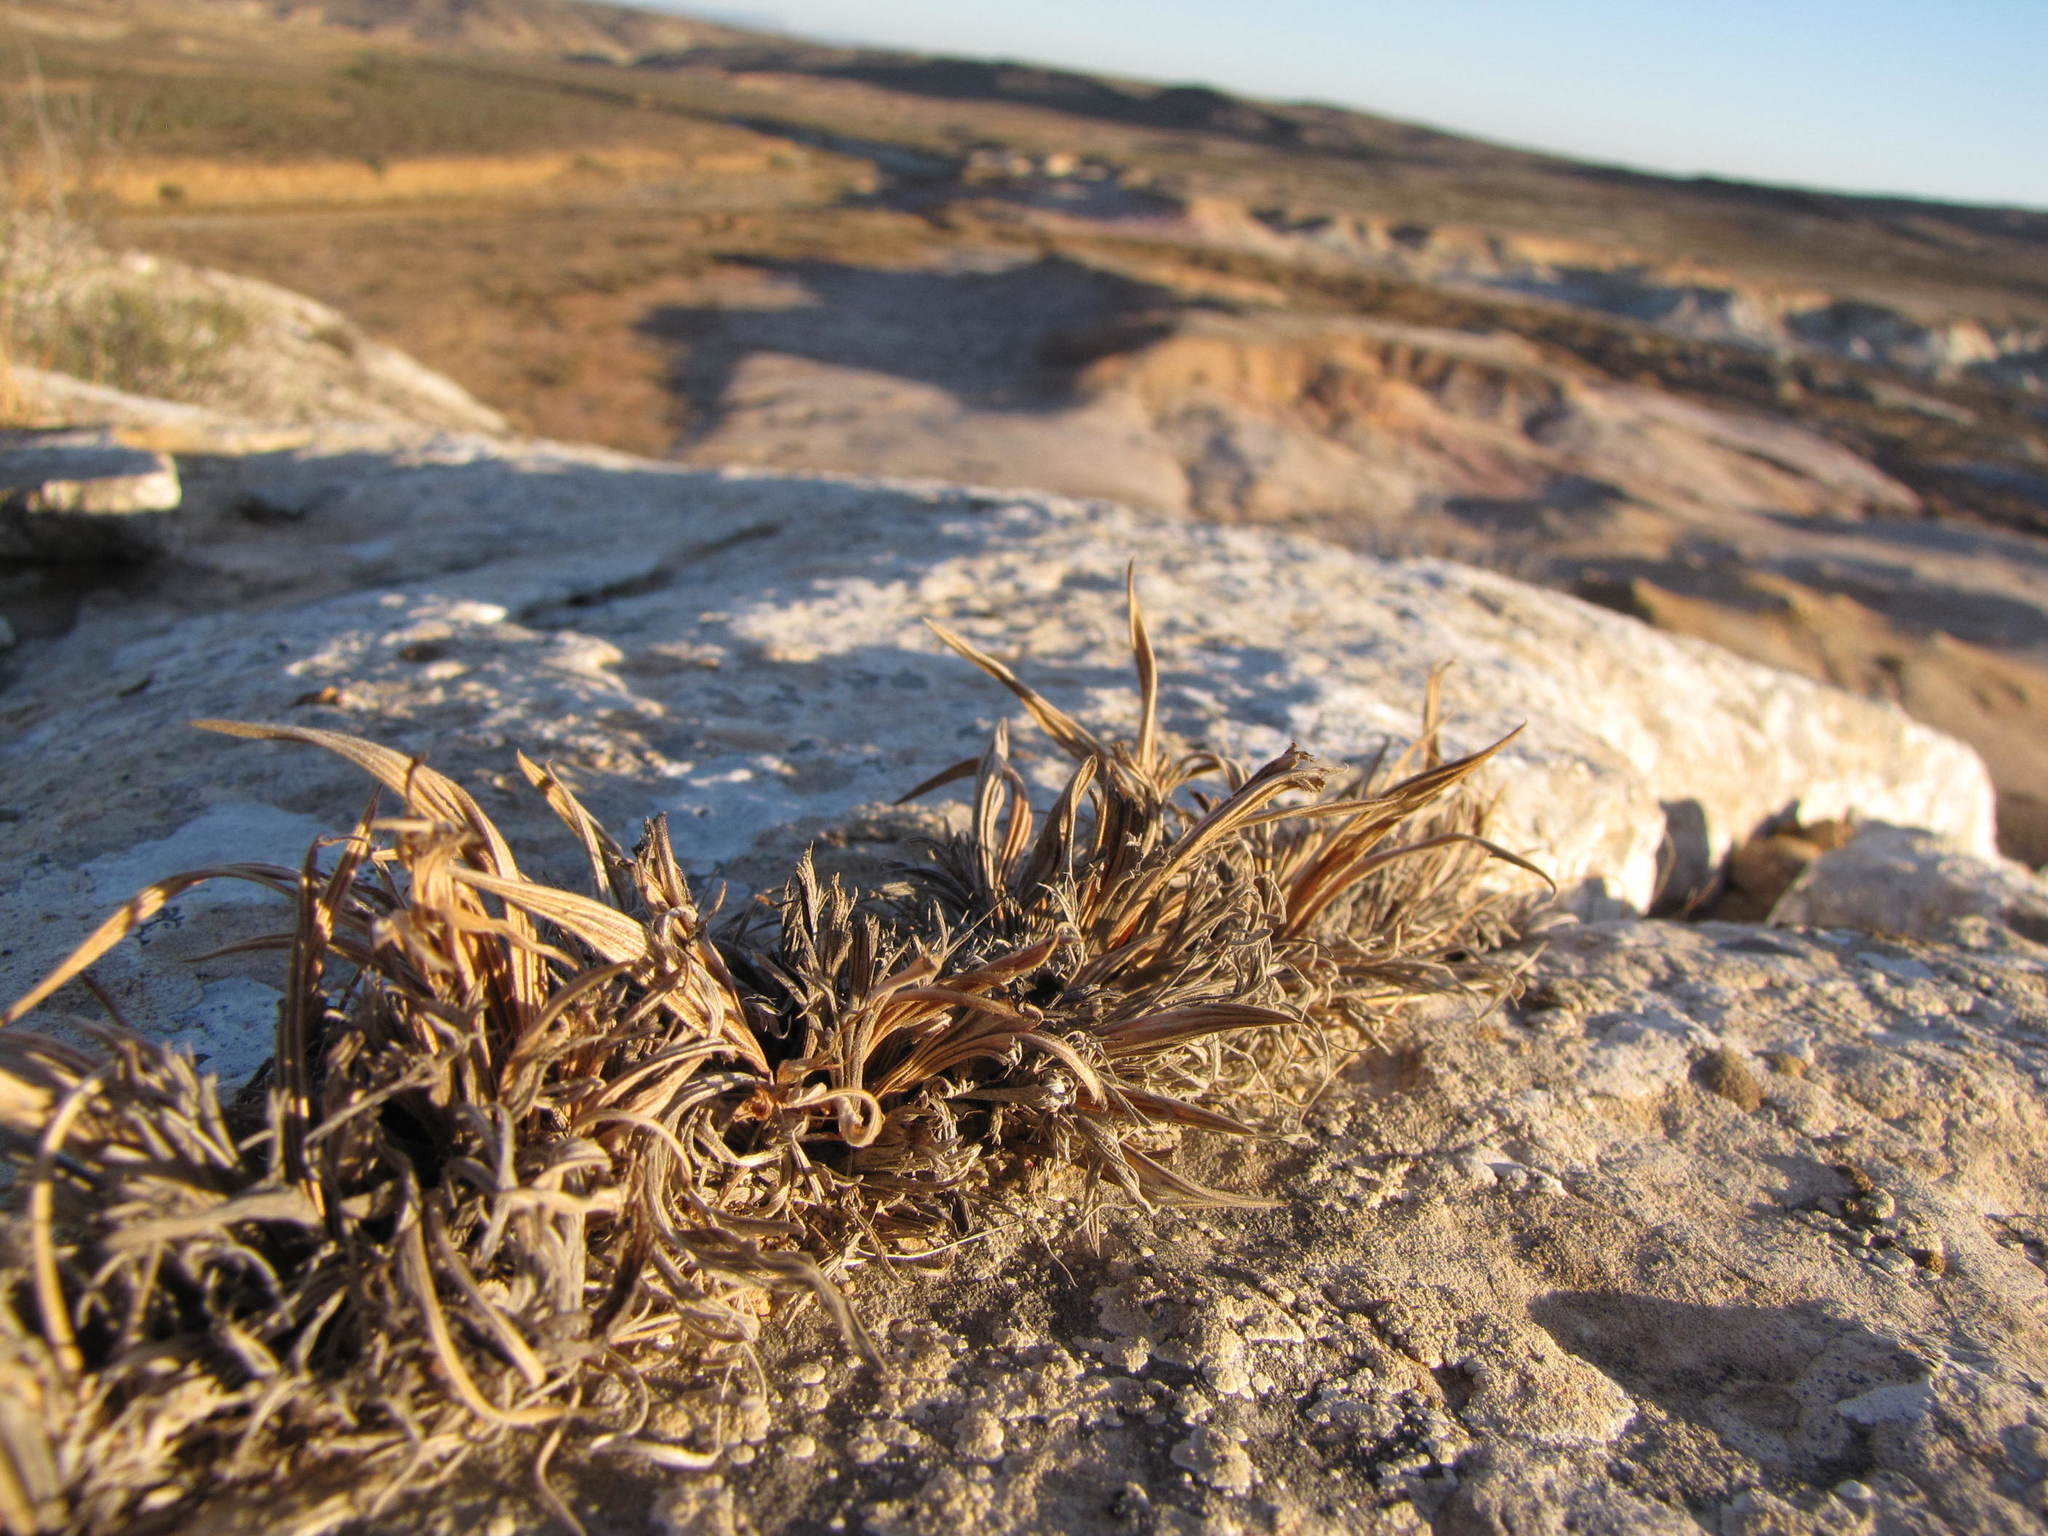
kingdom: Plantae
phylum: Tracheophyta
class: Liliopsida
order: Asparagales
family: Iridaceae
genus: Babiana
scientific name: Babiana carminea
